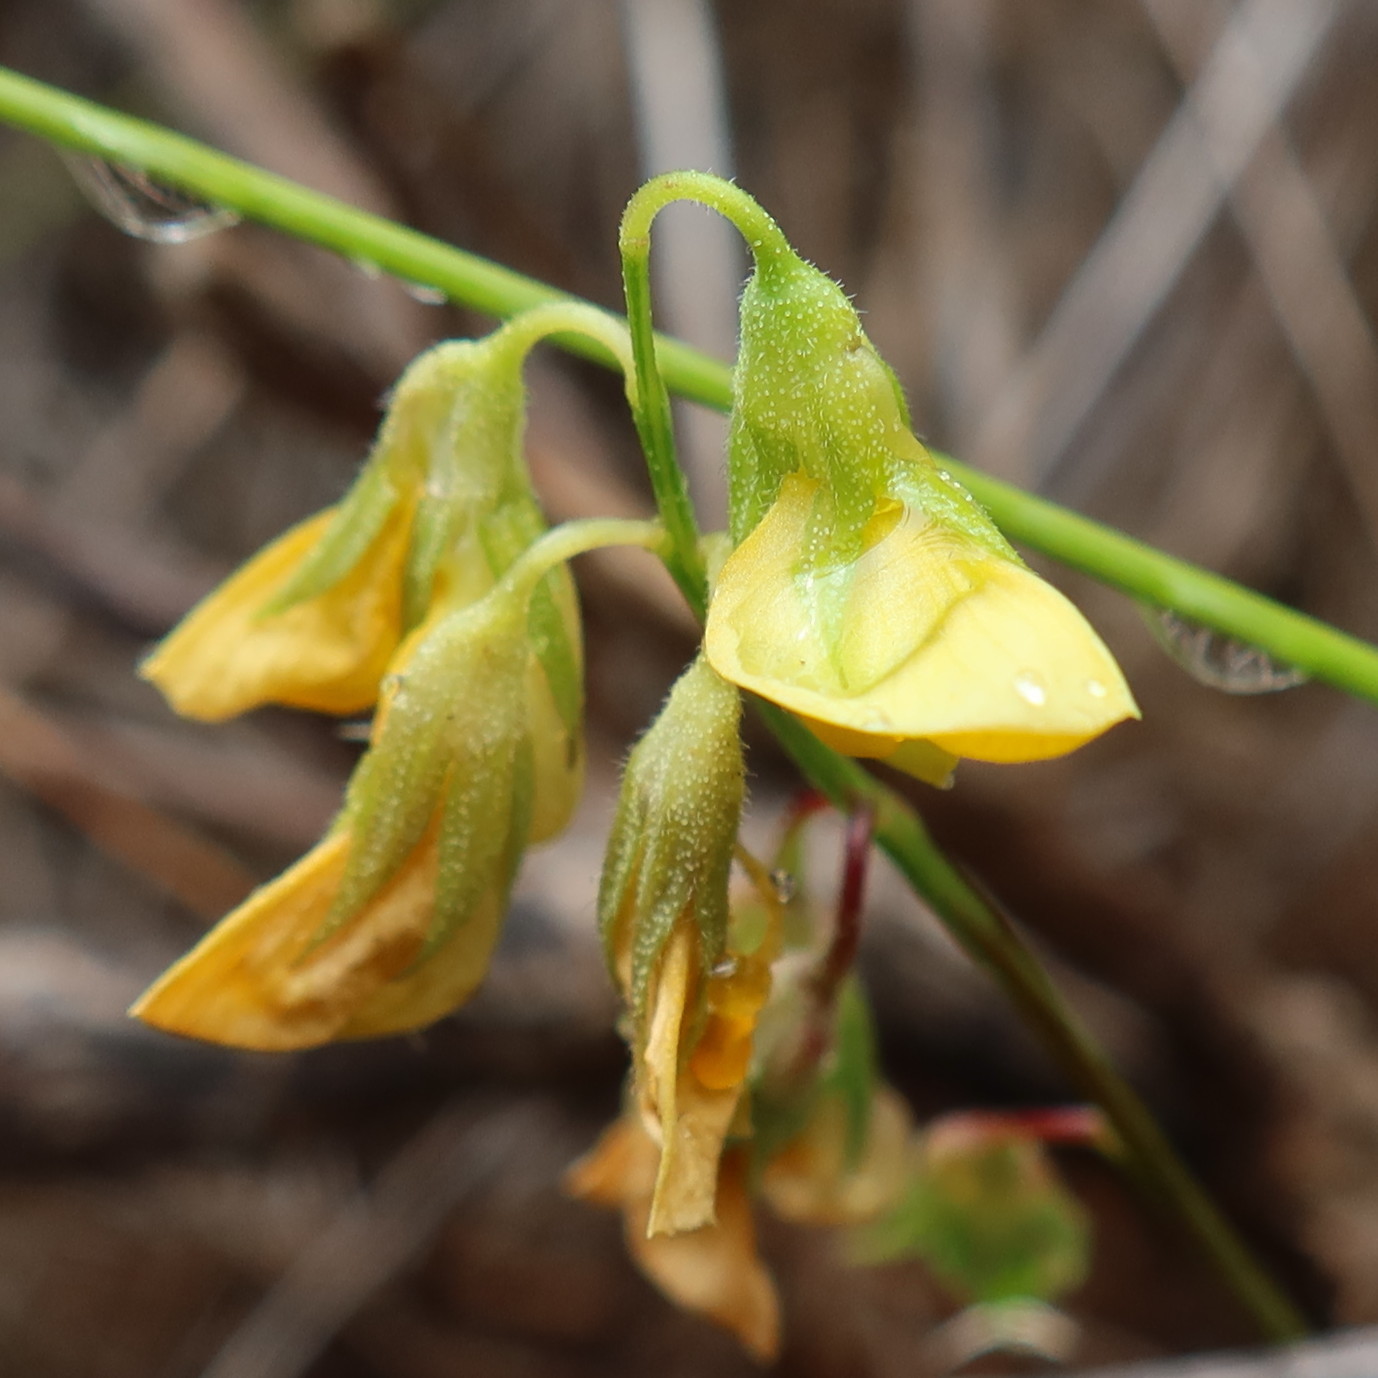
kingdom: Plantae
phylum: Tracheophyta
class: Magnoliopsida
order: Fabales
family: Fabaceae
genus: Rhynchosia
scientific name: Rhynchosia capensis
